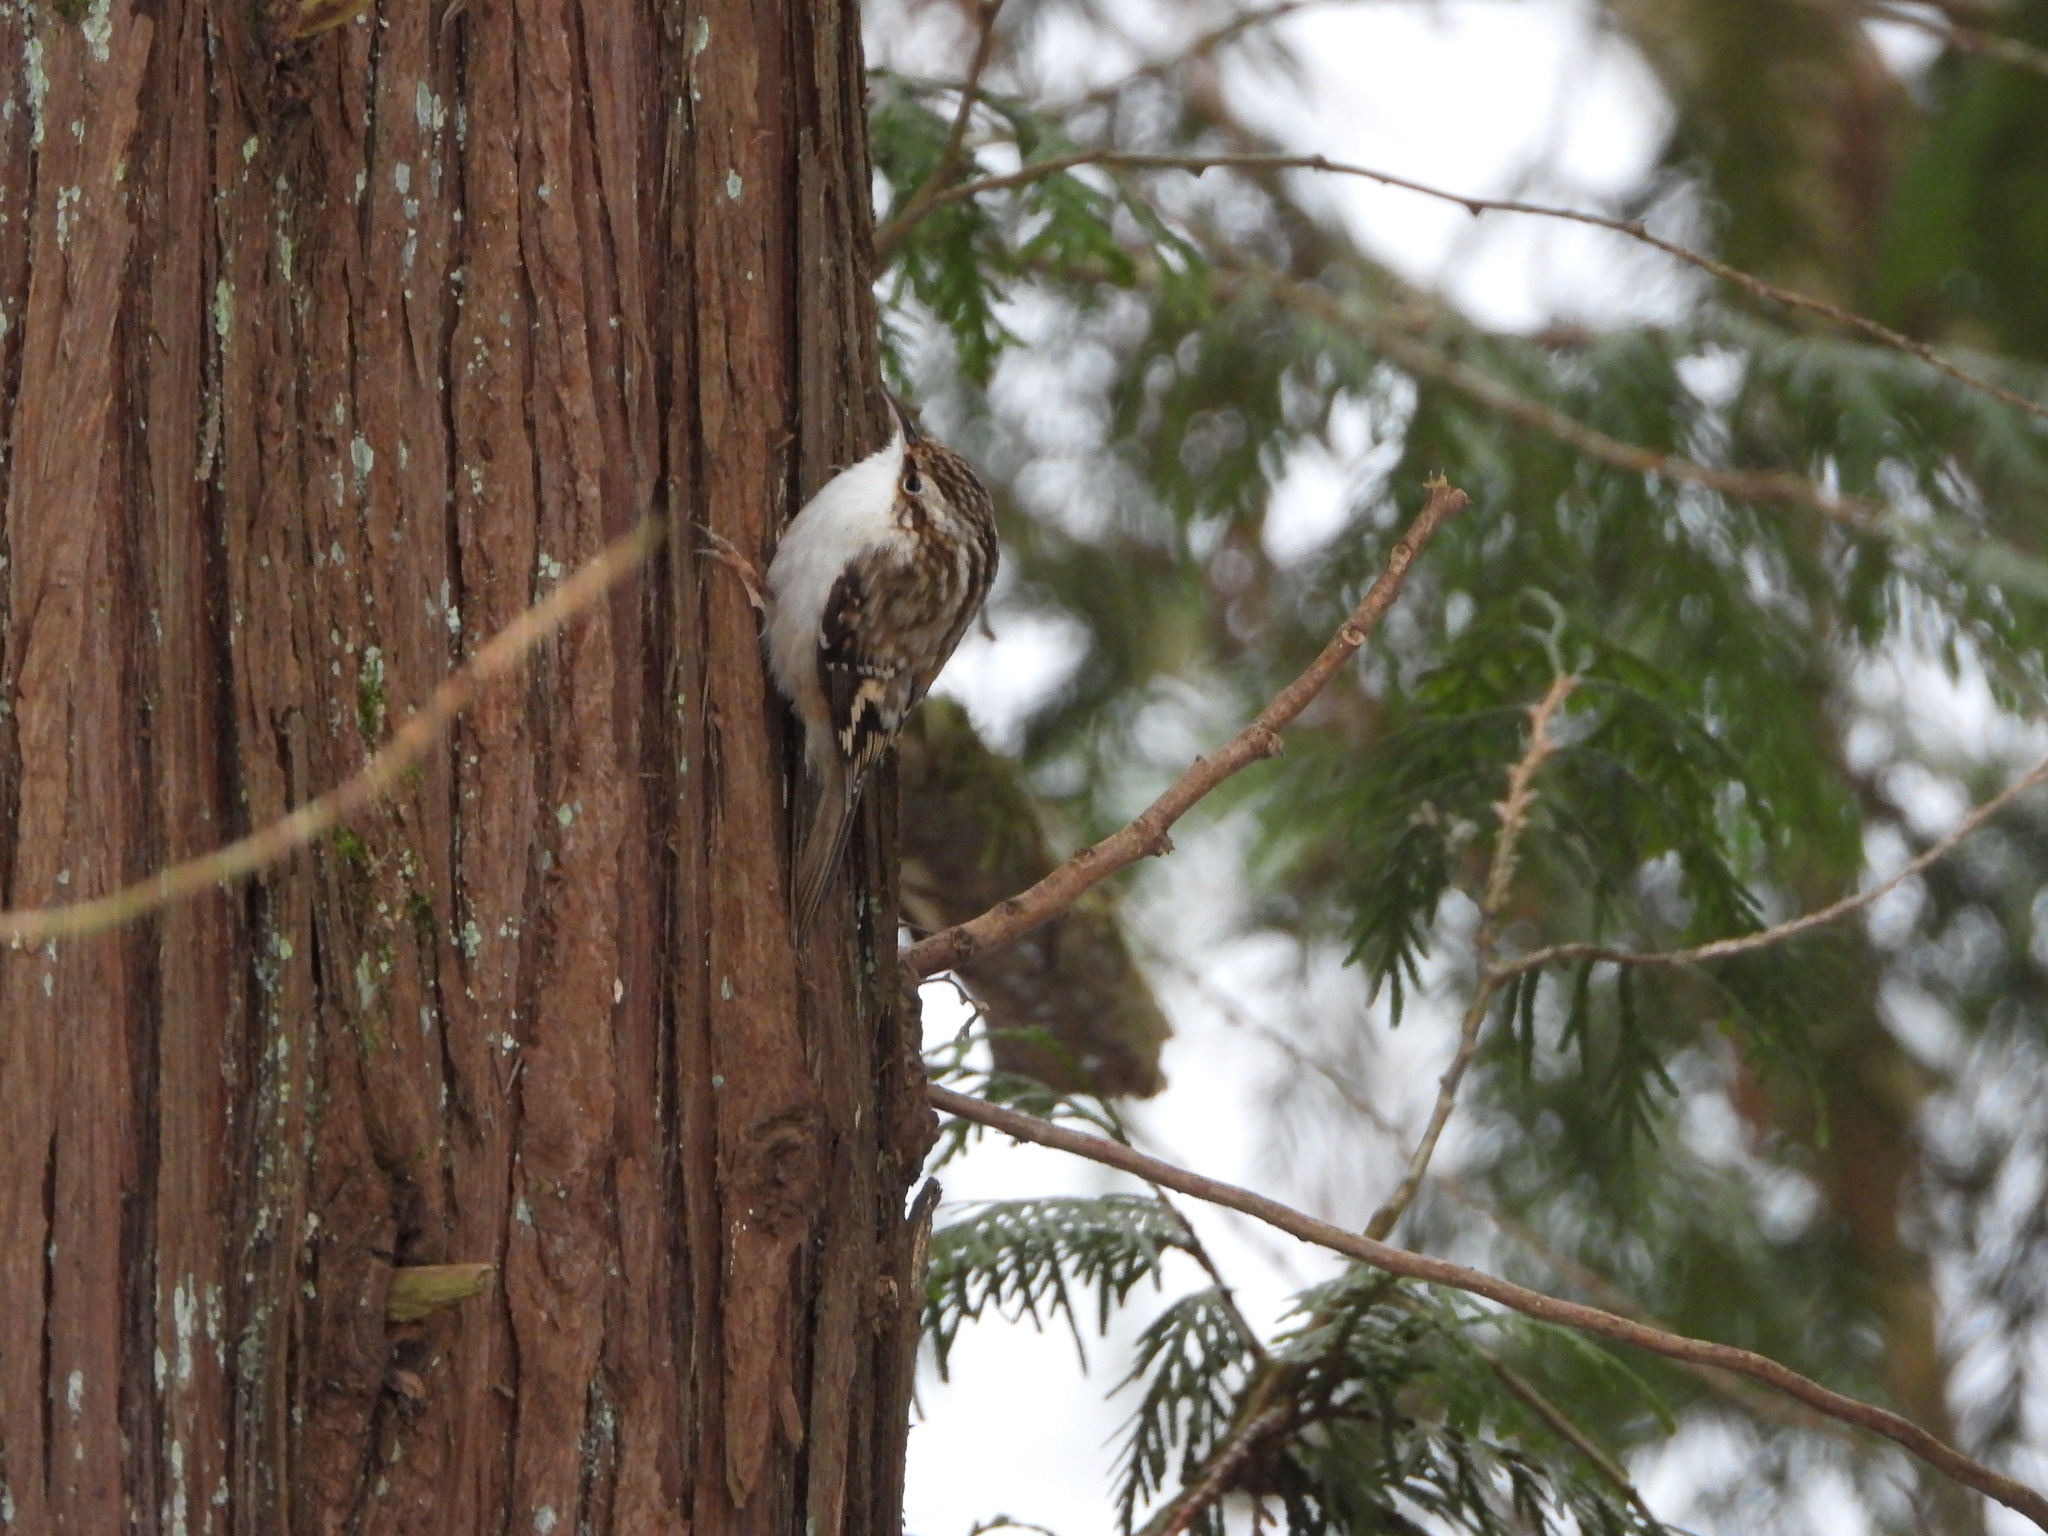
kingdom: Animalia
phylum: Chordata
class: Aves
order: Passeriformes
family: Certhiidae
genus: Certhia
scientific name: Certhia americana
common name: Brown creeper
